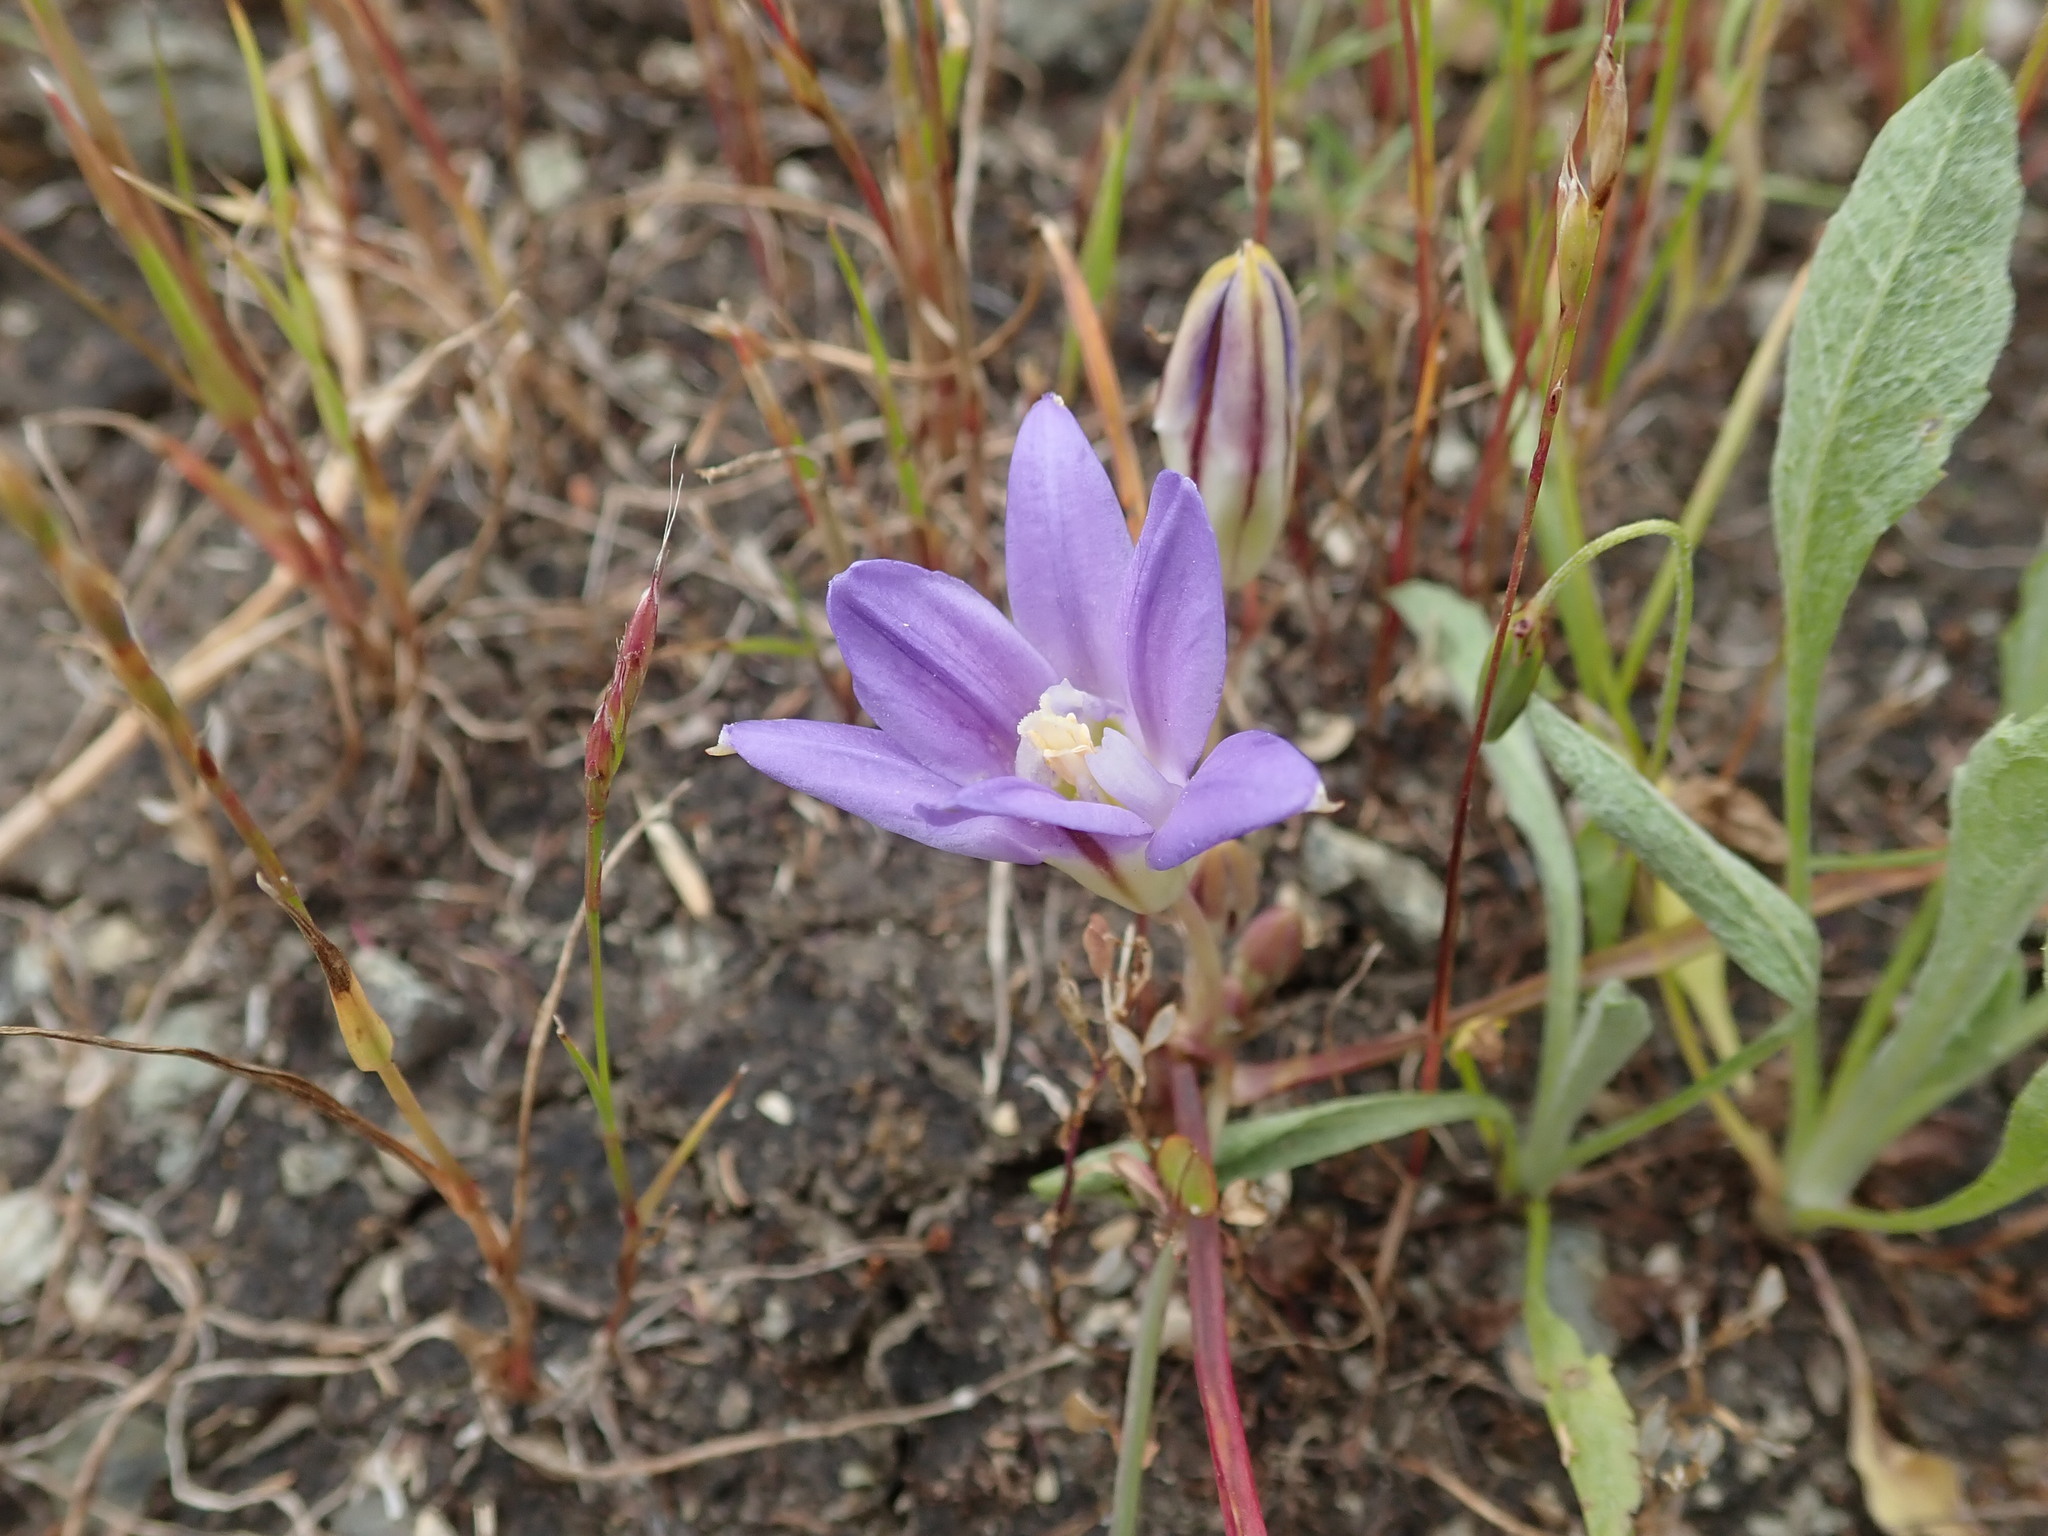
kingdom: Plantae
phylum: Tracheophyta
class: Liliopsida
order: Asparagales
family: Asparagaceae
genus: Brodiaea
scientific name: Brodiaea terrestris
